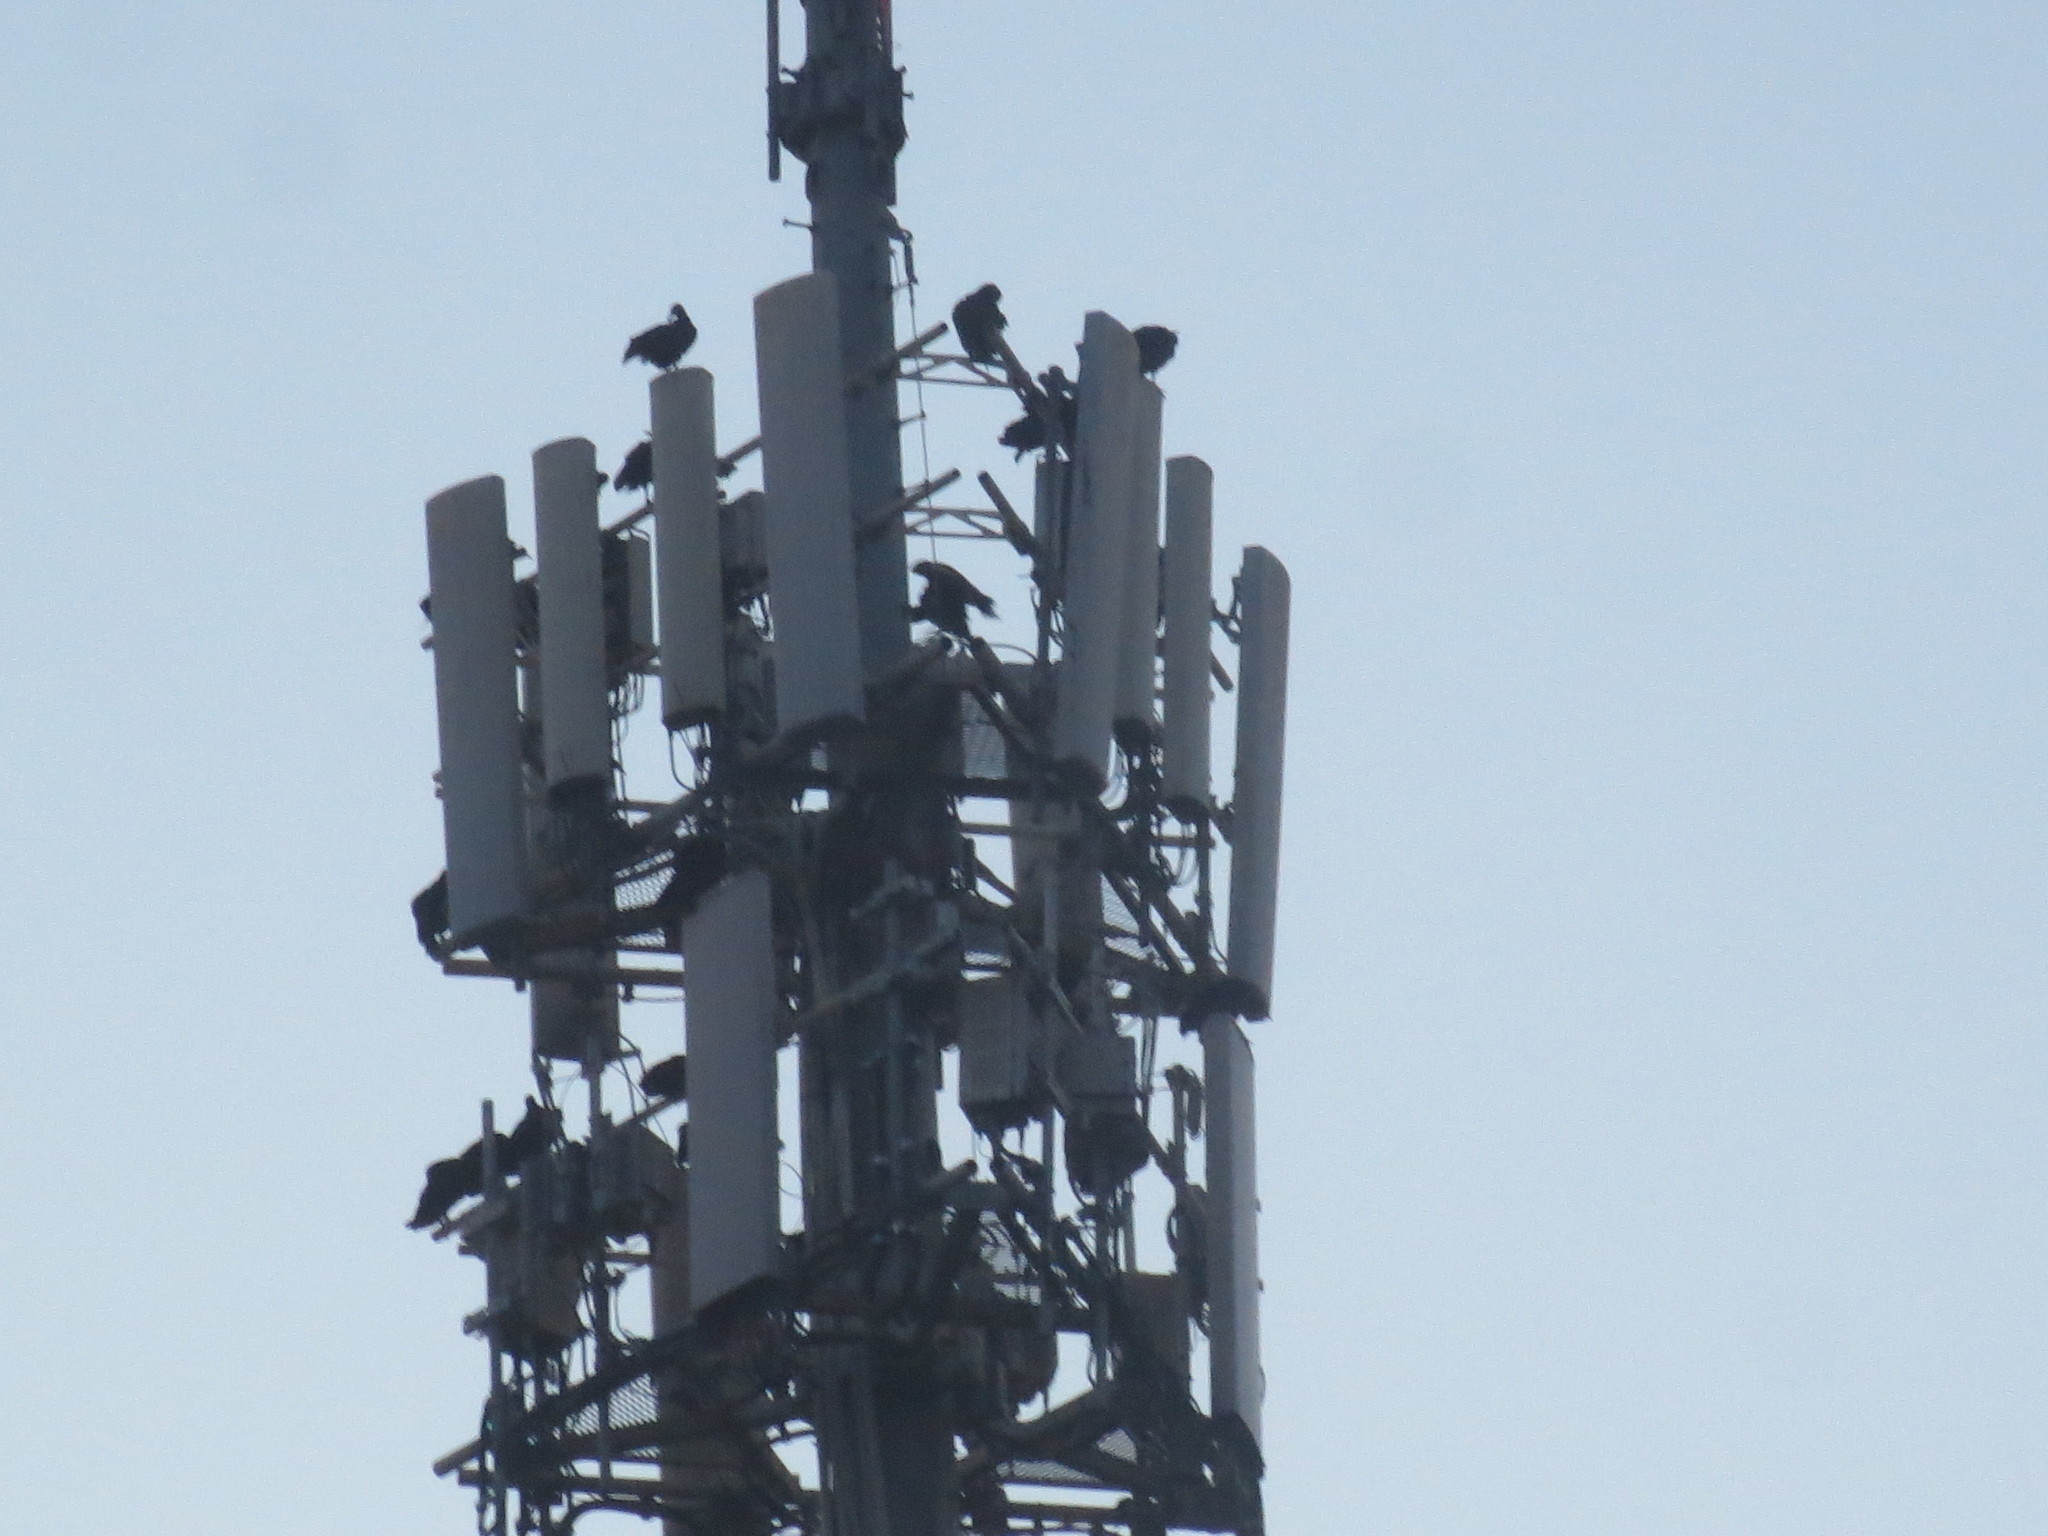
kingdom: Animalia
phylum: Chordata
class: Aves
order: Accipitriformes
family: Cathartidae
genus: Coragyps
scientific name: Coragyps atratus
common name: Black vulture
